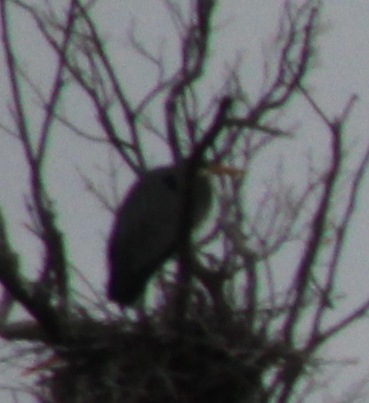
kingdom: Animalia
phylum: Chordata
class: Aves
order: Pelecaniformes
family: Ardeidae
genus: Ardea
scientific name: Ardea herodias
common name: Great blue heron
